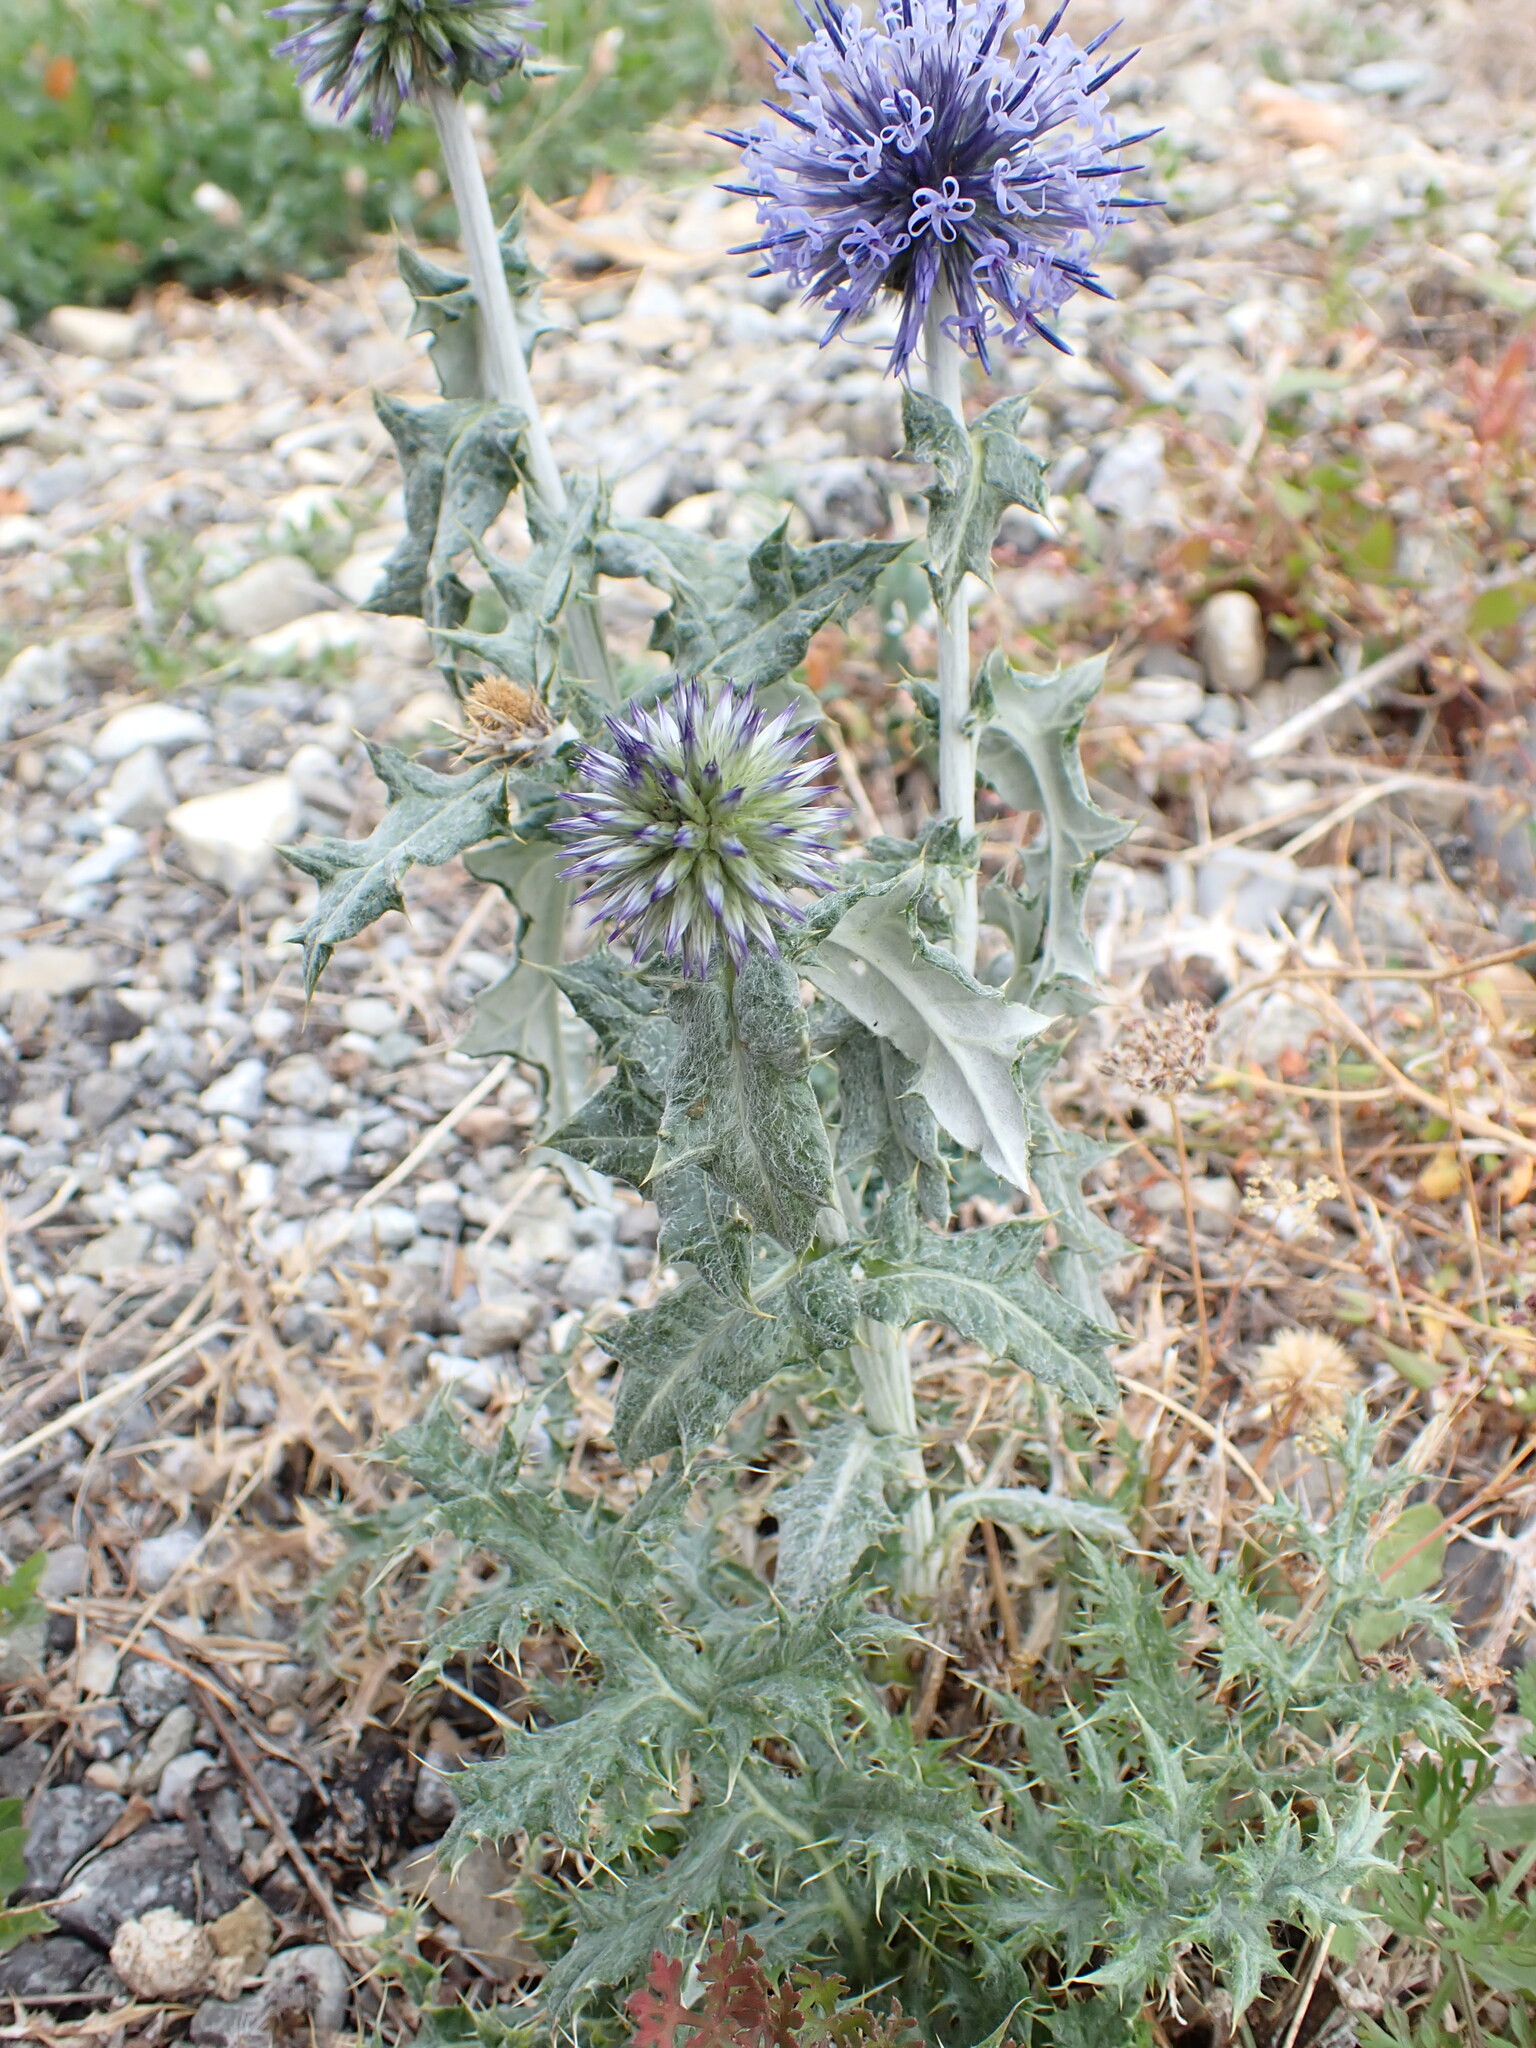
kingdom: Plantae
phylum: Tracheophyta
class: Magnoliopsida
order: Asterales
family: Asteraceae
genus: Echinops
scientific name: Echinops ritro
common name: Globe thistle
